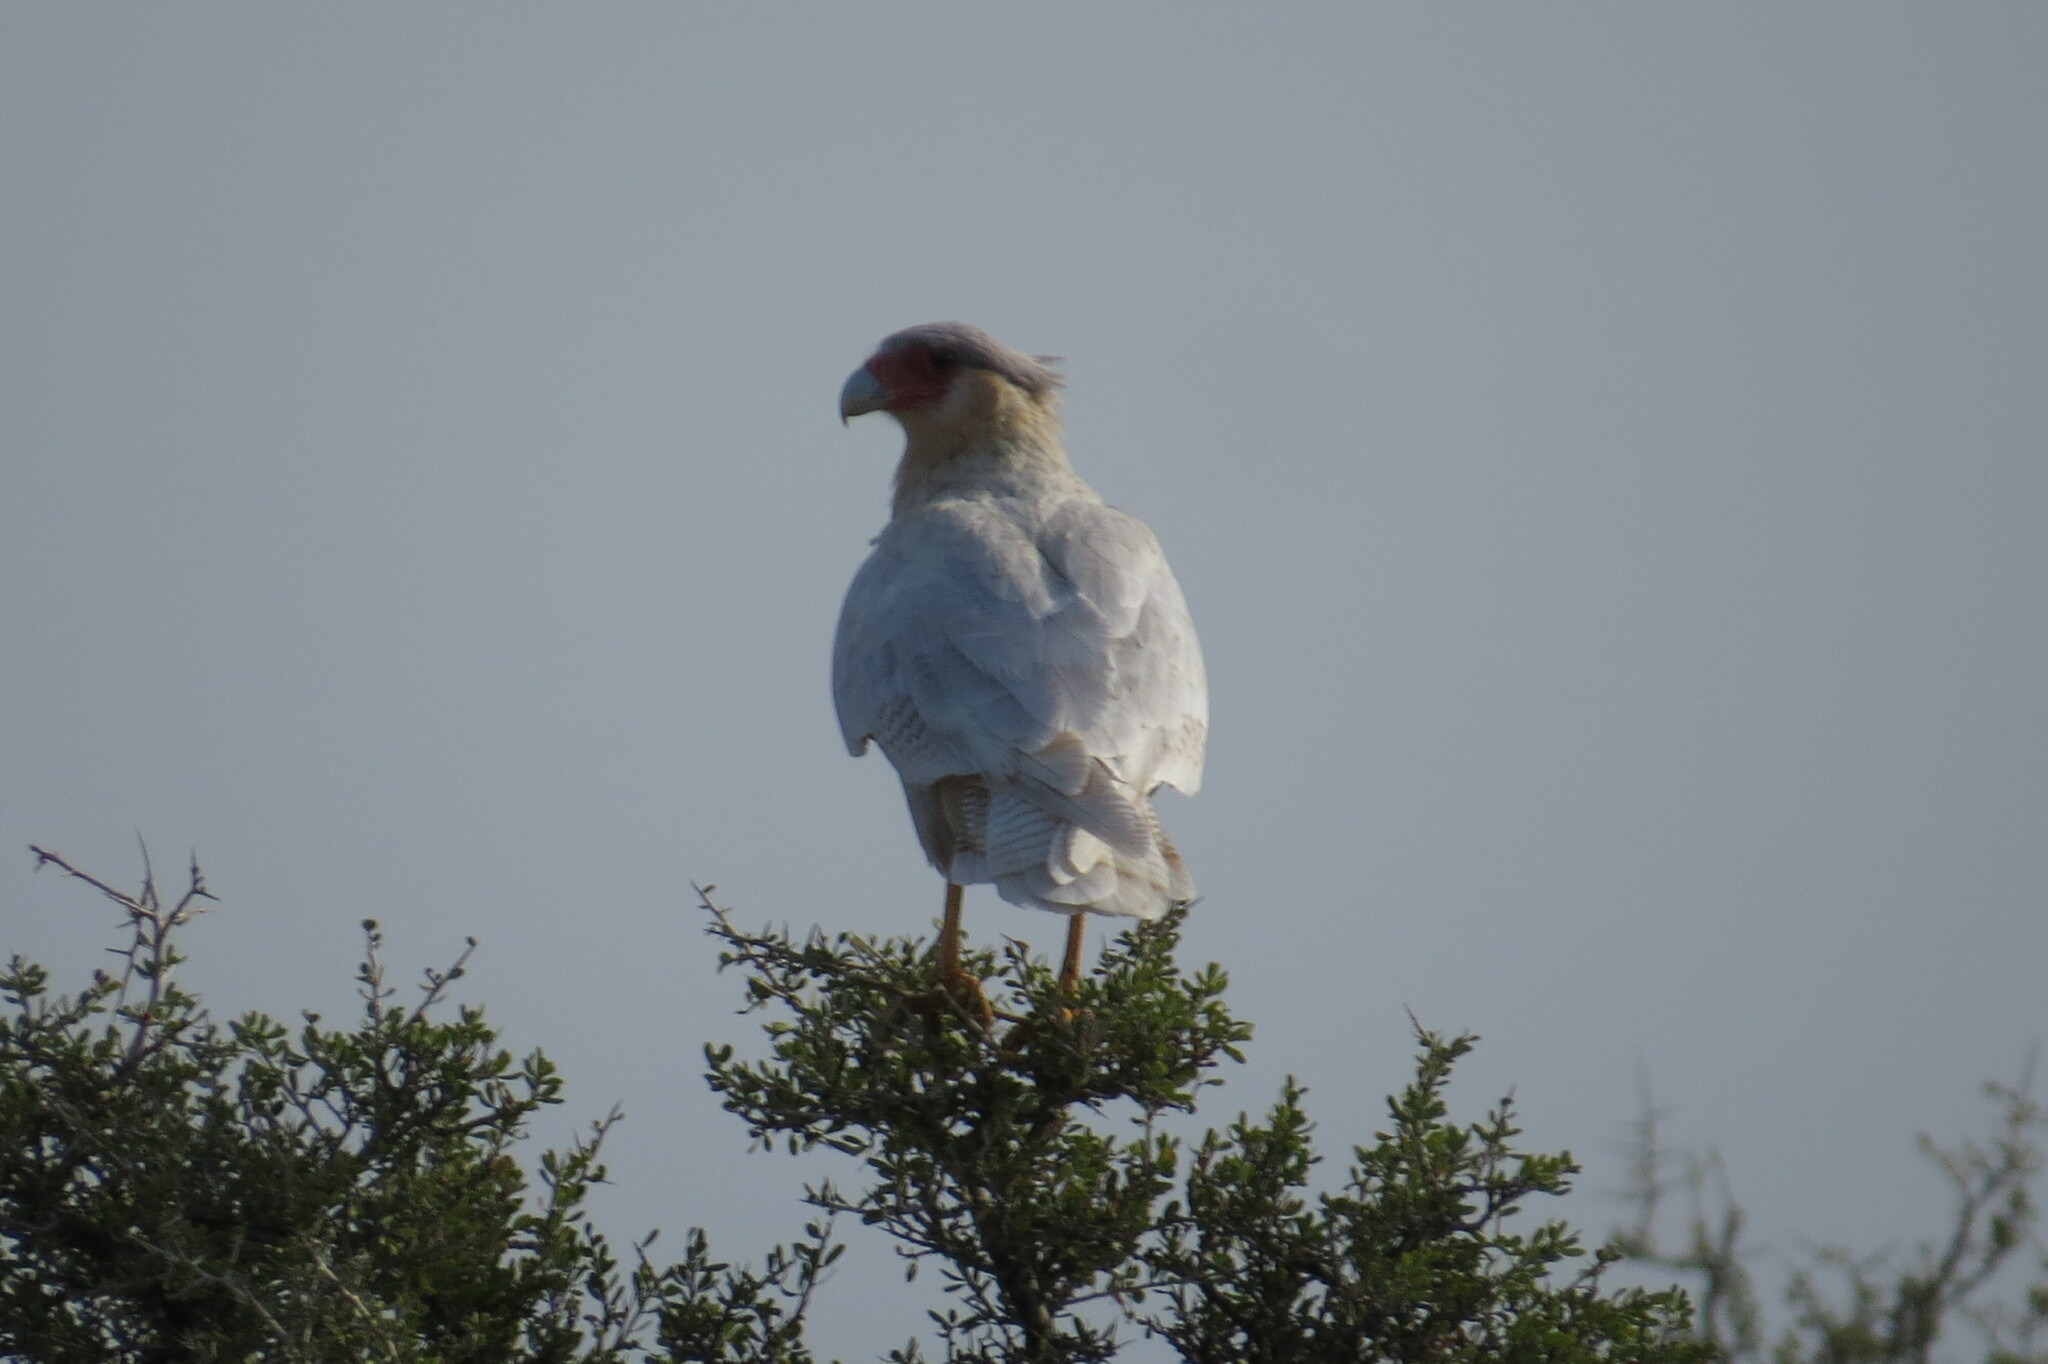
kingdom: Animalia
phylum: Chordata
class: Aves
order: Falconiformes
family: Falconidae
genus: Caracara
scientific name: Caracara plancus
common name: Southern caracara
